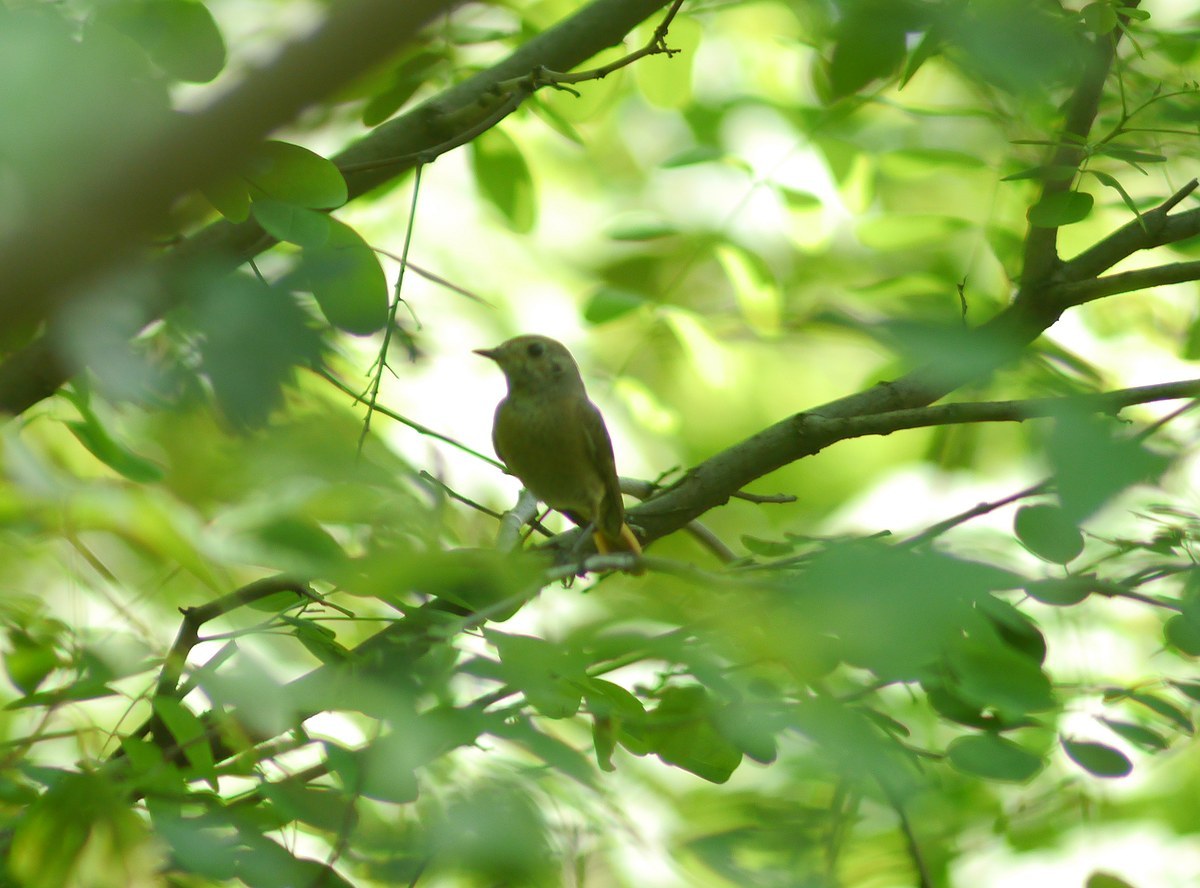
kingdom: Animalia
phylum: Chordata
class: Aves
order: Passeriformes
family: Muscicapidae
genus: Phoenicurus
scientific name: Phoenicurus phoenicurus
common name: Common redstart
